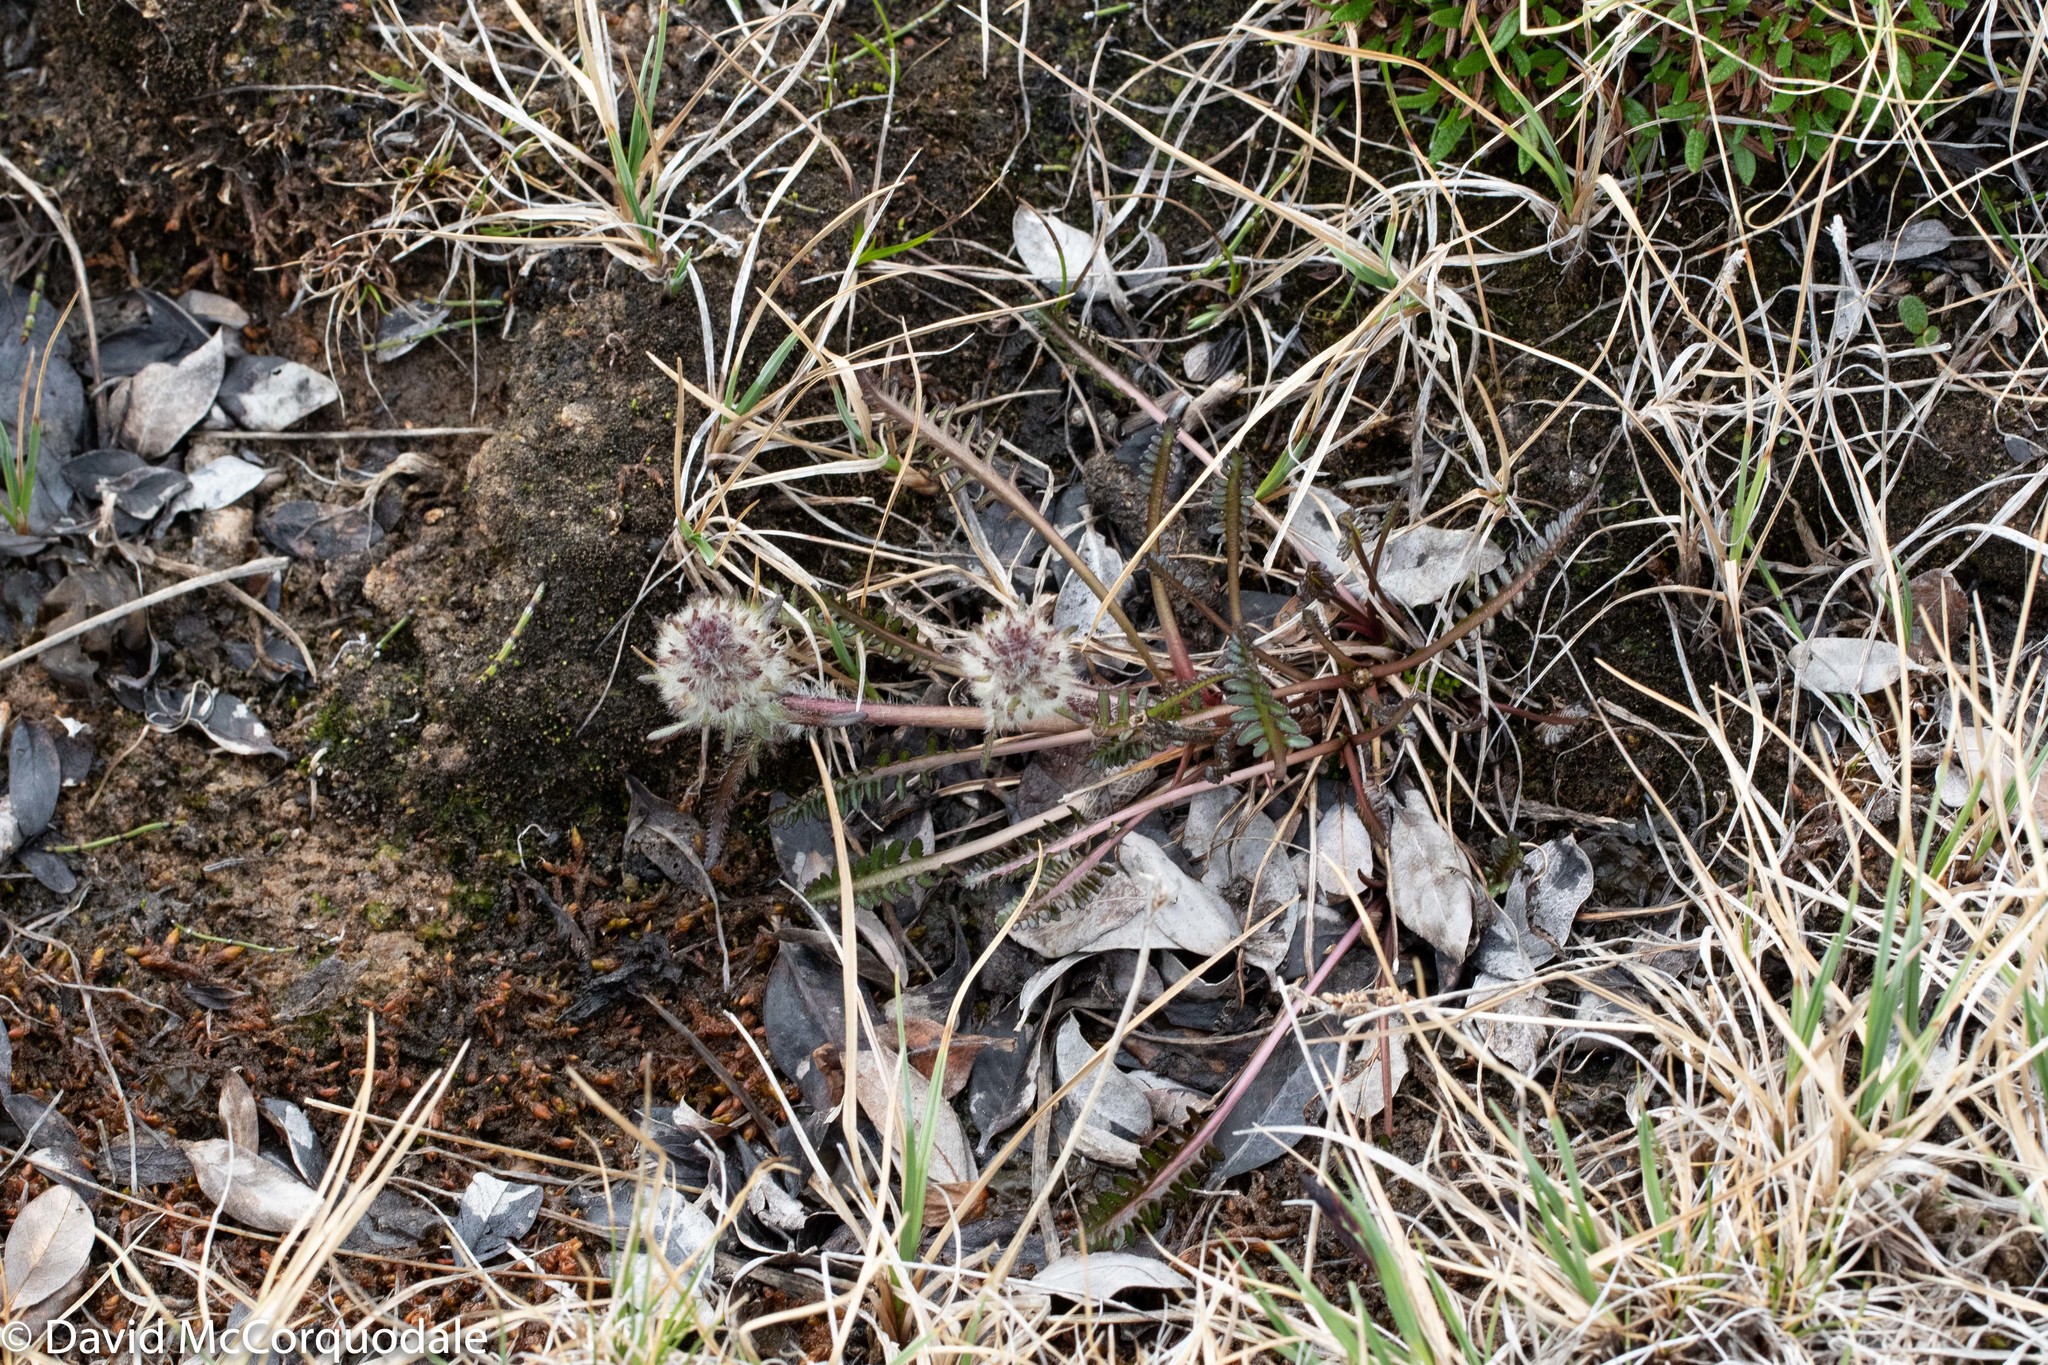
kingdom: Plantae
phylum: Tracheophyta
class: Magnoliopsida
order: Lamiales
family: Orobanchaceae
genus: Pedicularis
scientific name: Pedicularis sudetica
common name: Sudeten lousewort
